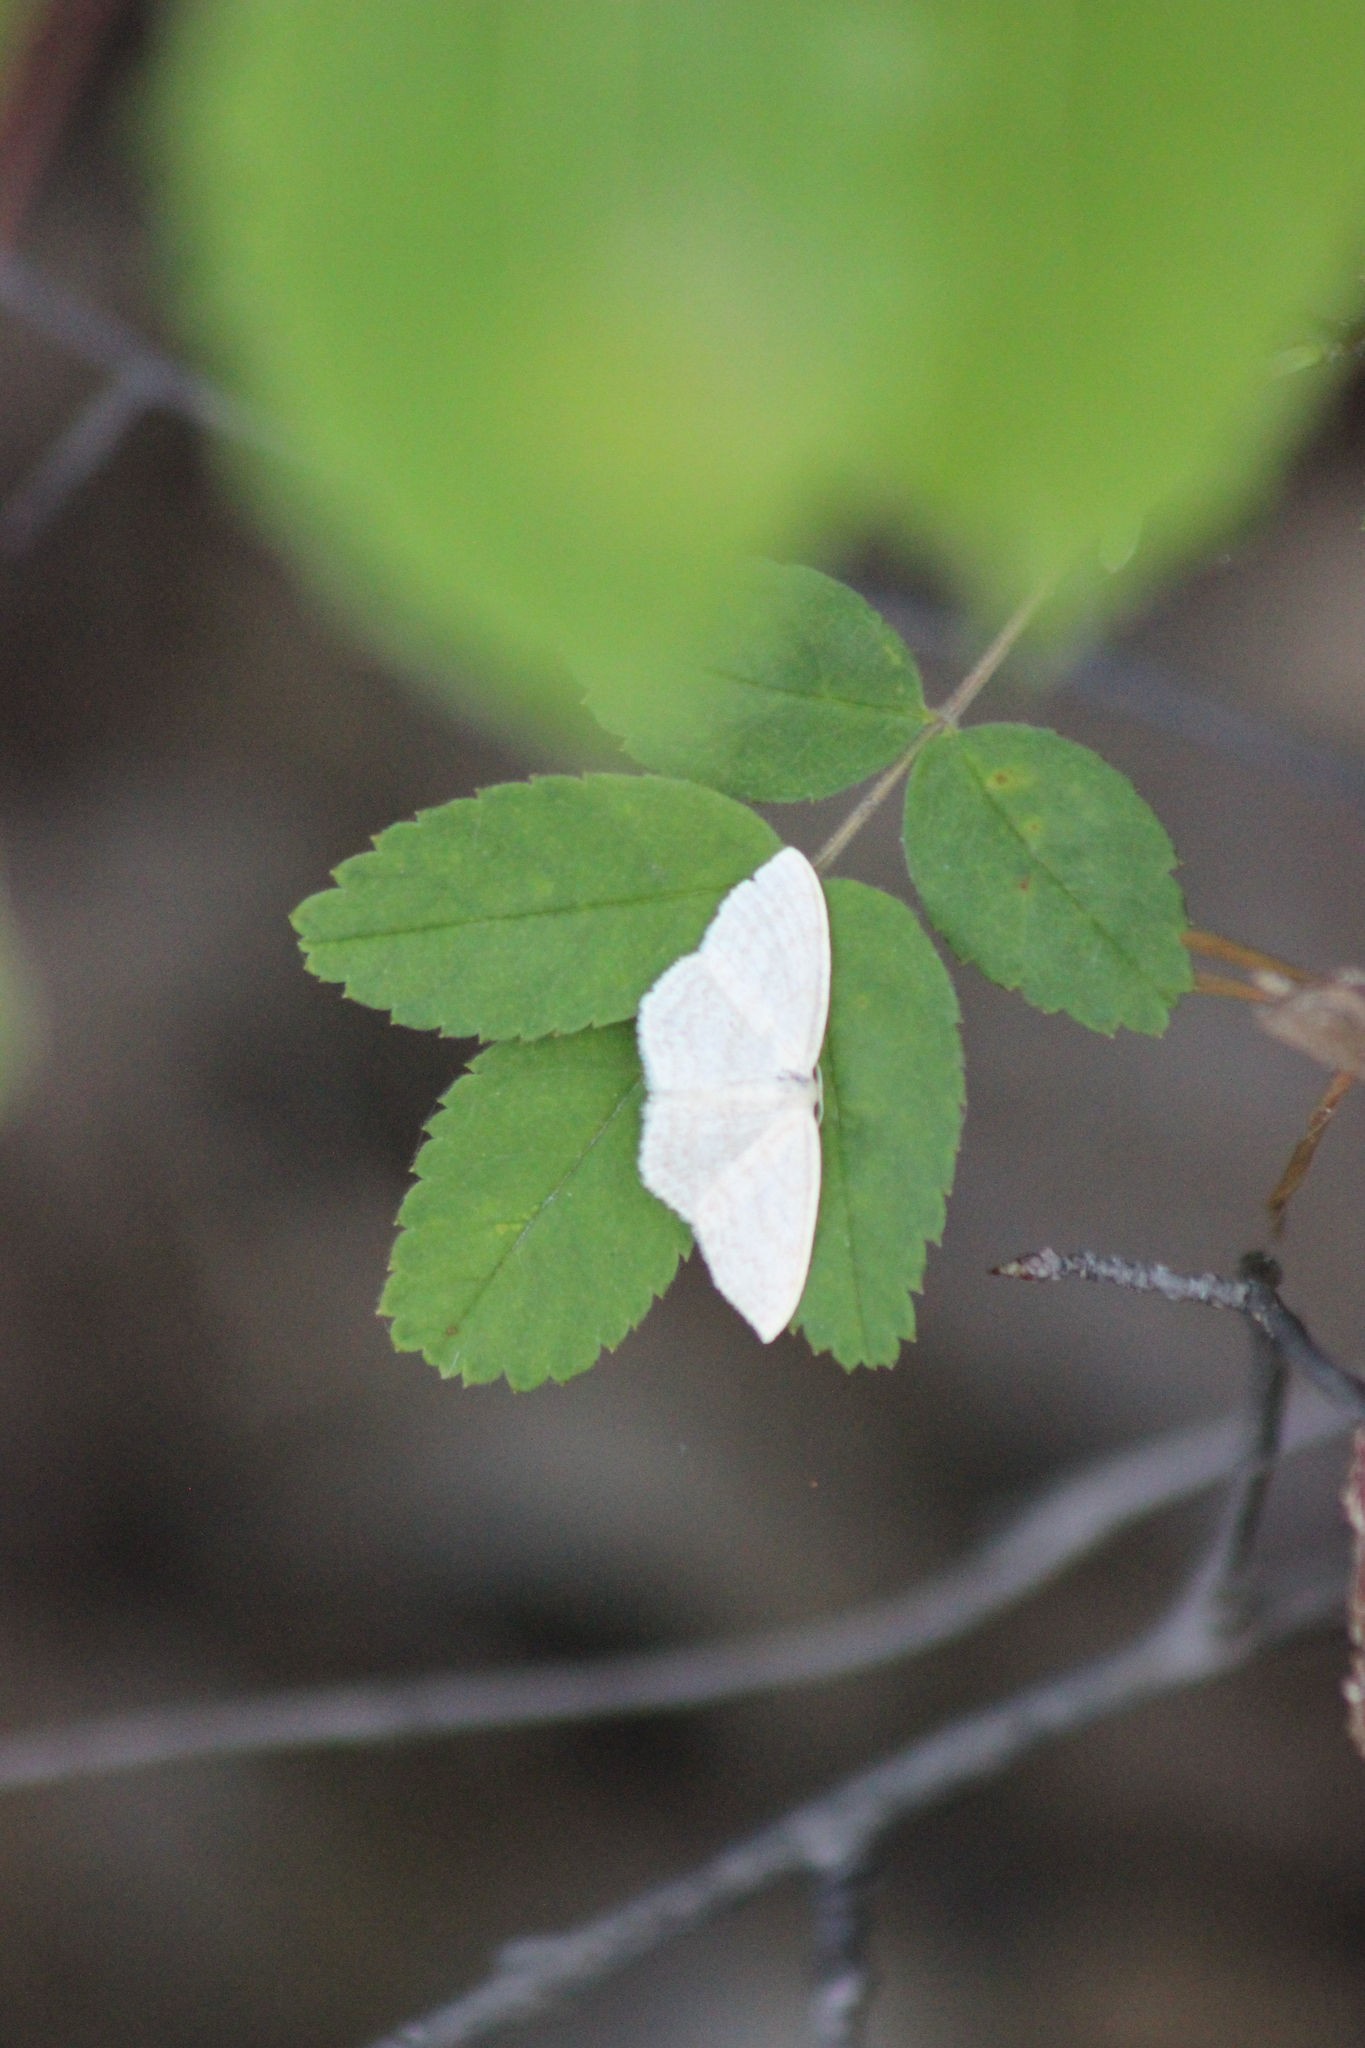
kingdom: Animalia
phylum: Arthropoda
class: Insecta
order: Lepidoptera
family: Geometridae
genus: Scopula
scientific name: Scopula floslactata
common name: Cream wave
